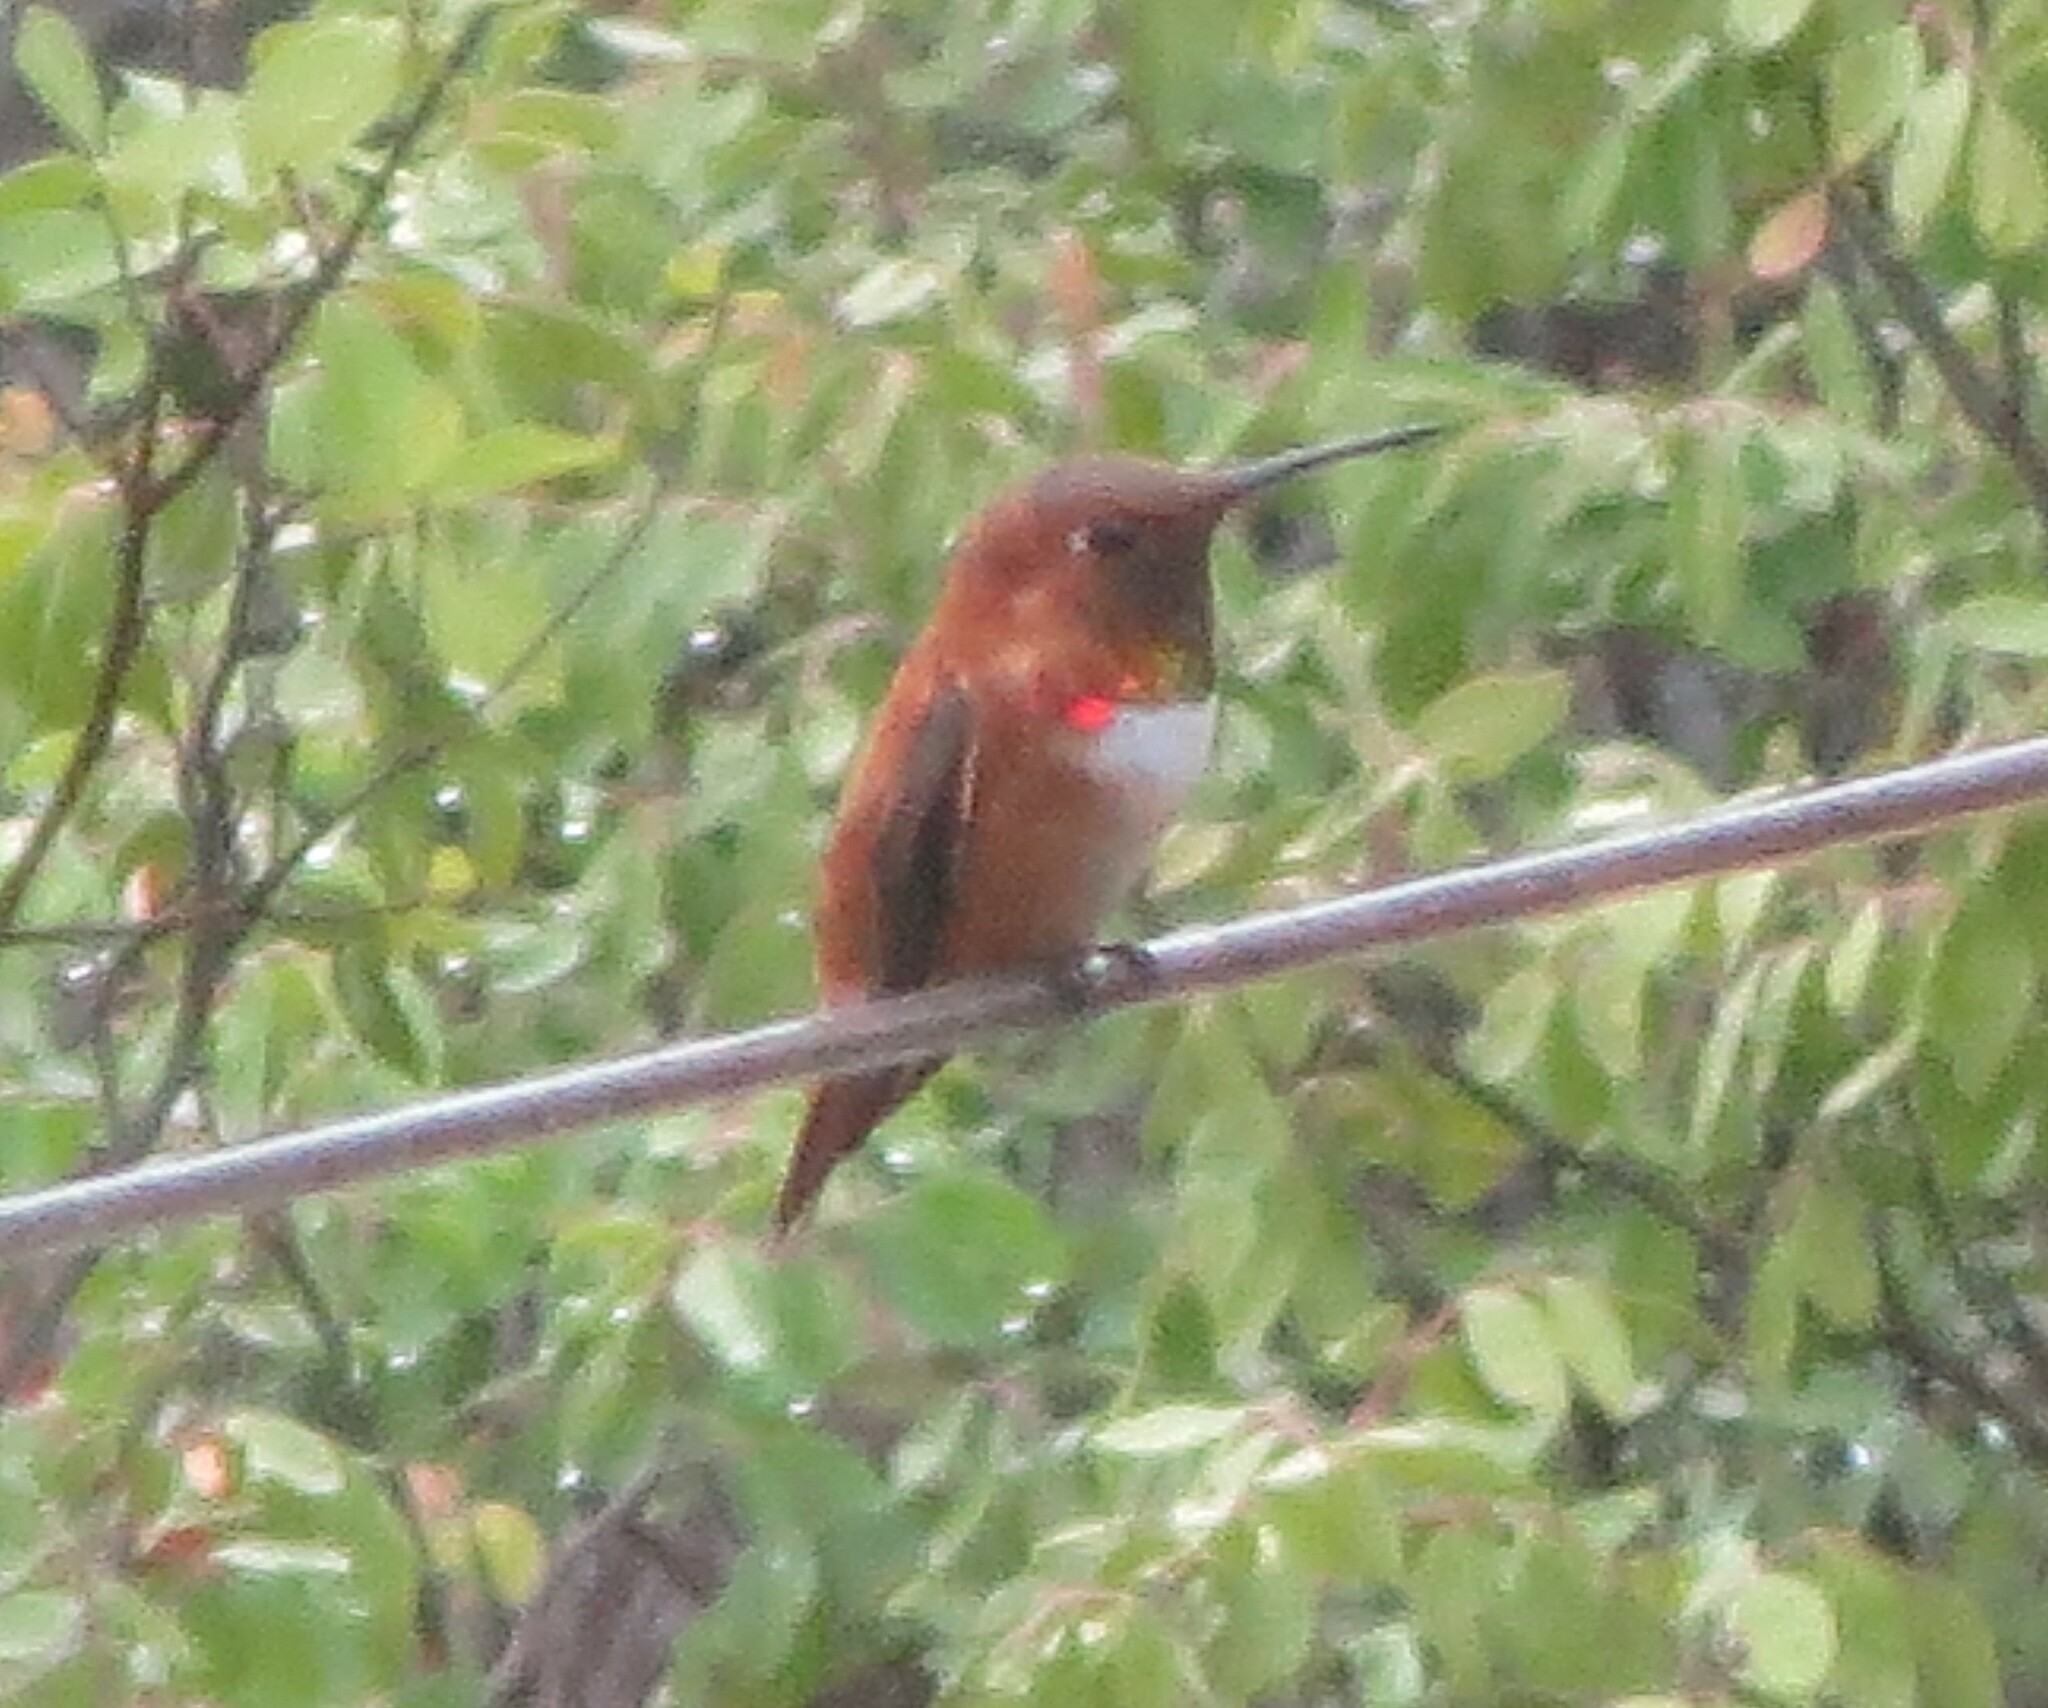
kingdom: Animalia
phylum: Chordata
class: Aves
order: Apodiformes
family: Trochilidae
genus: Selasphorus
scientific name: Selasphorus rufus
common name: Rufous hummingbird
